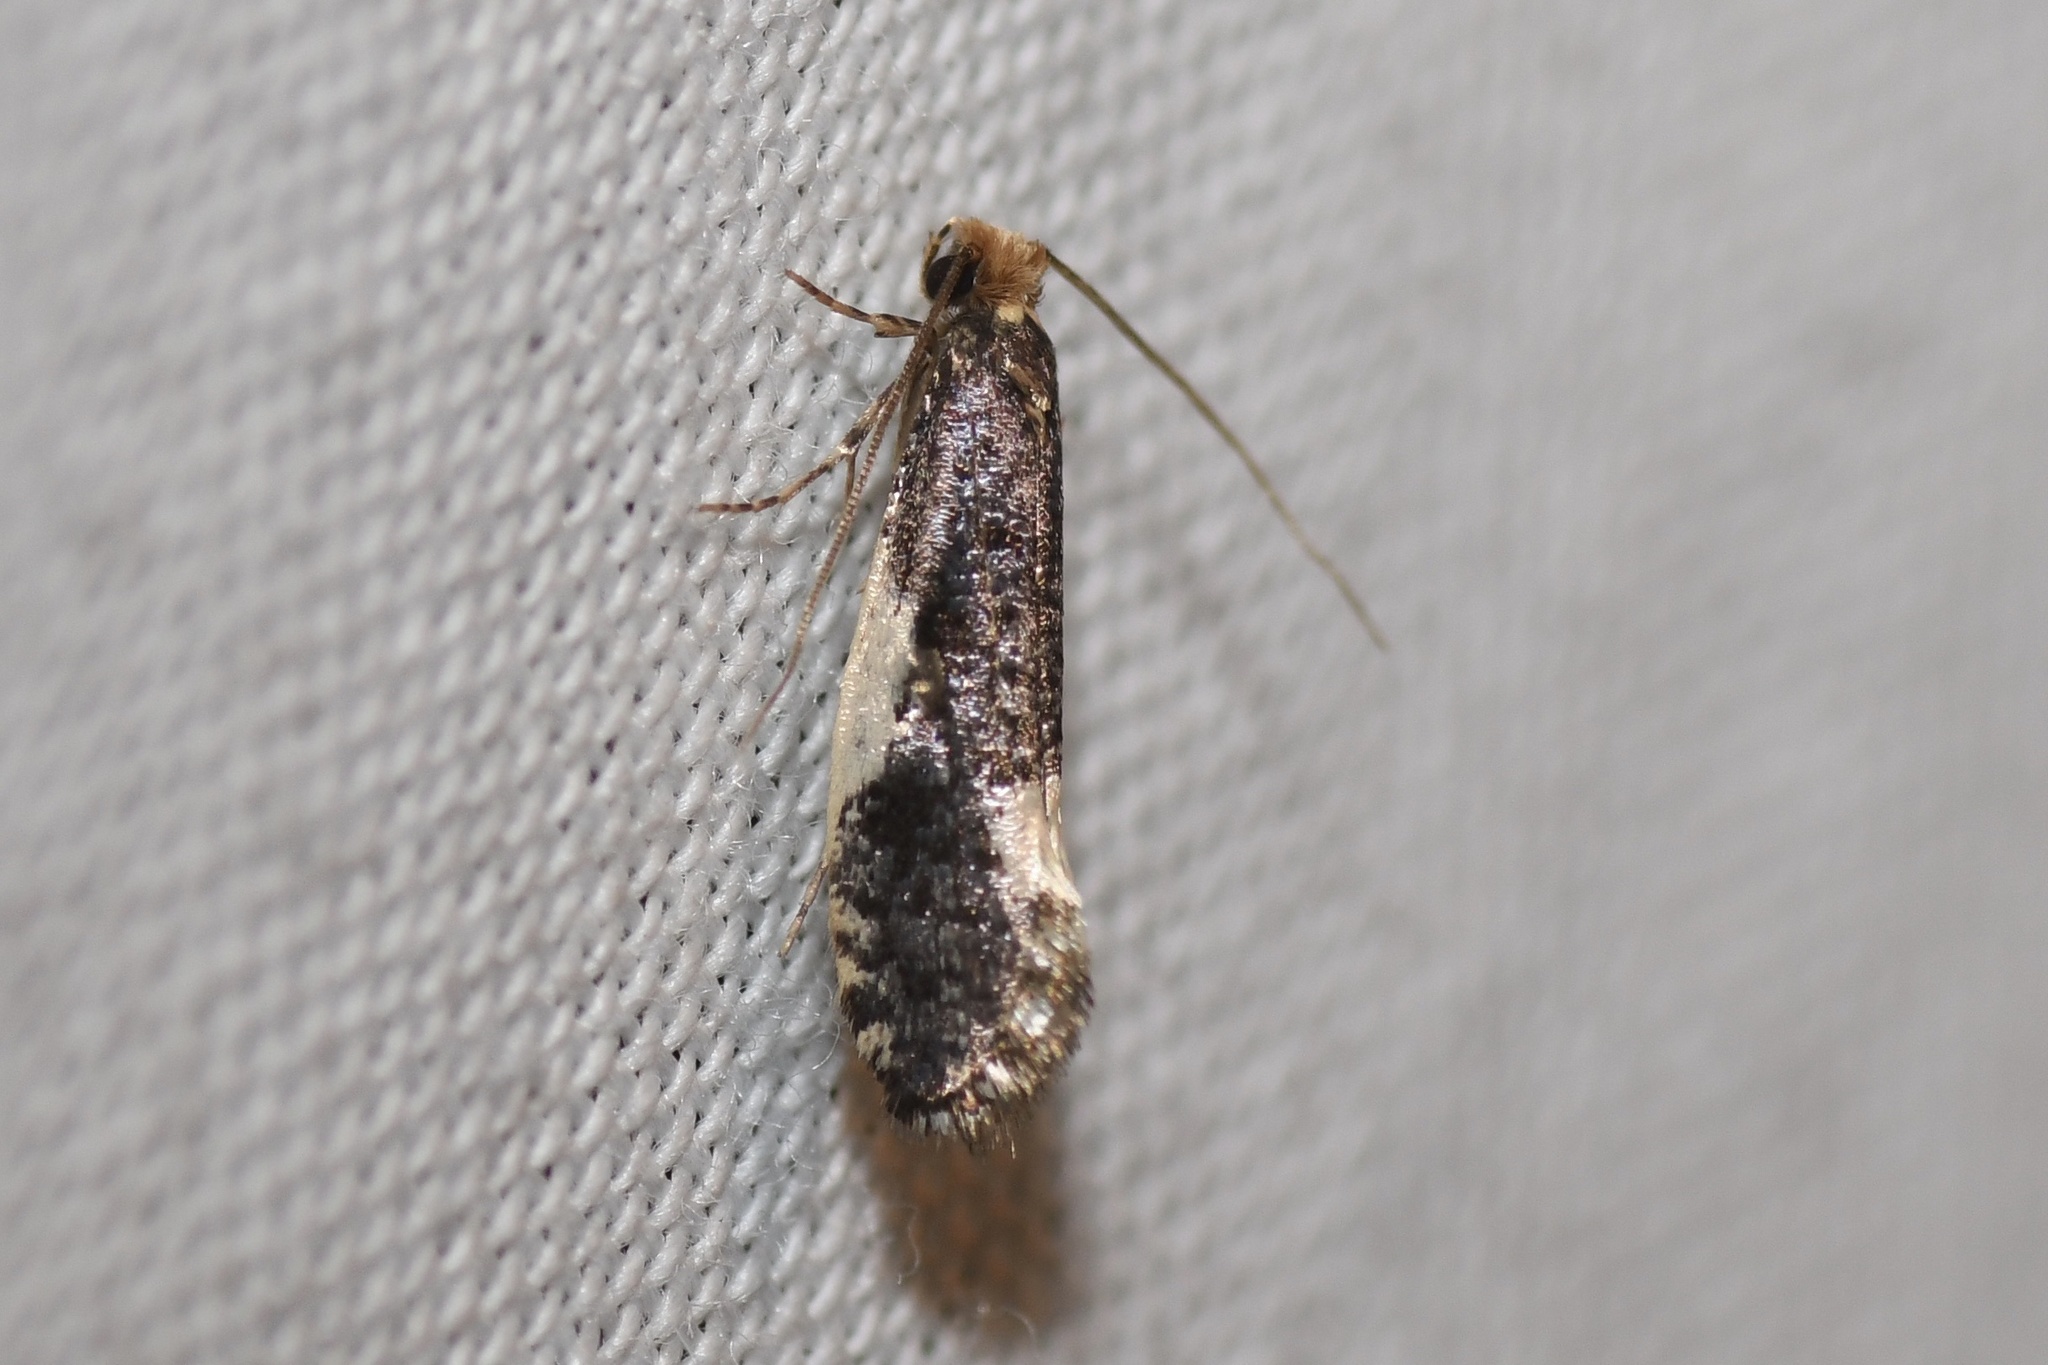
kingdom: Animalia
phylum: Arthropoda
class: Insecta
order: Lepidoptera
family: Tineidae
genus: Monopis
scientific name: Monopis spilotella
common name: Orange-headed monopis
